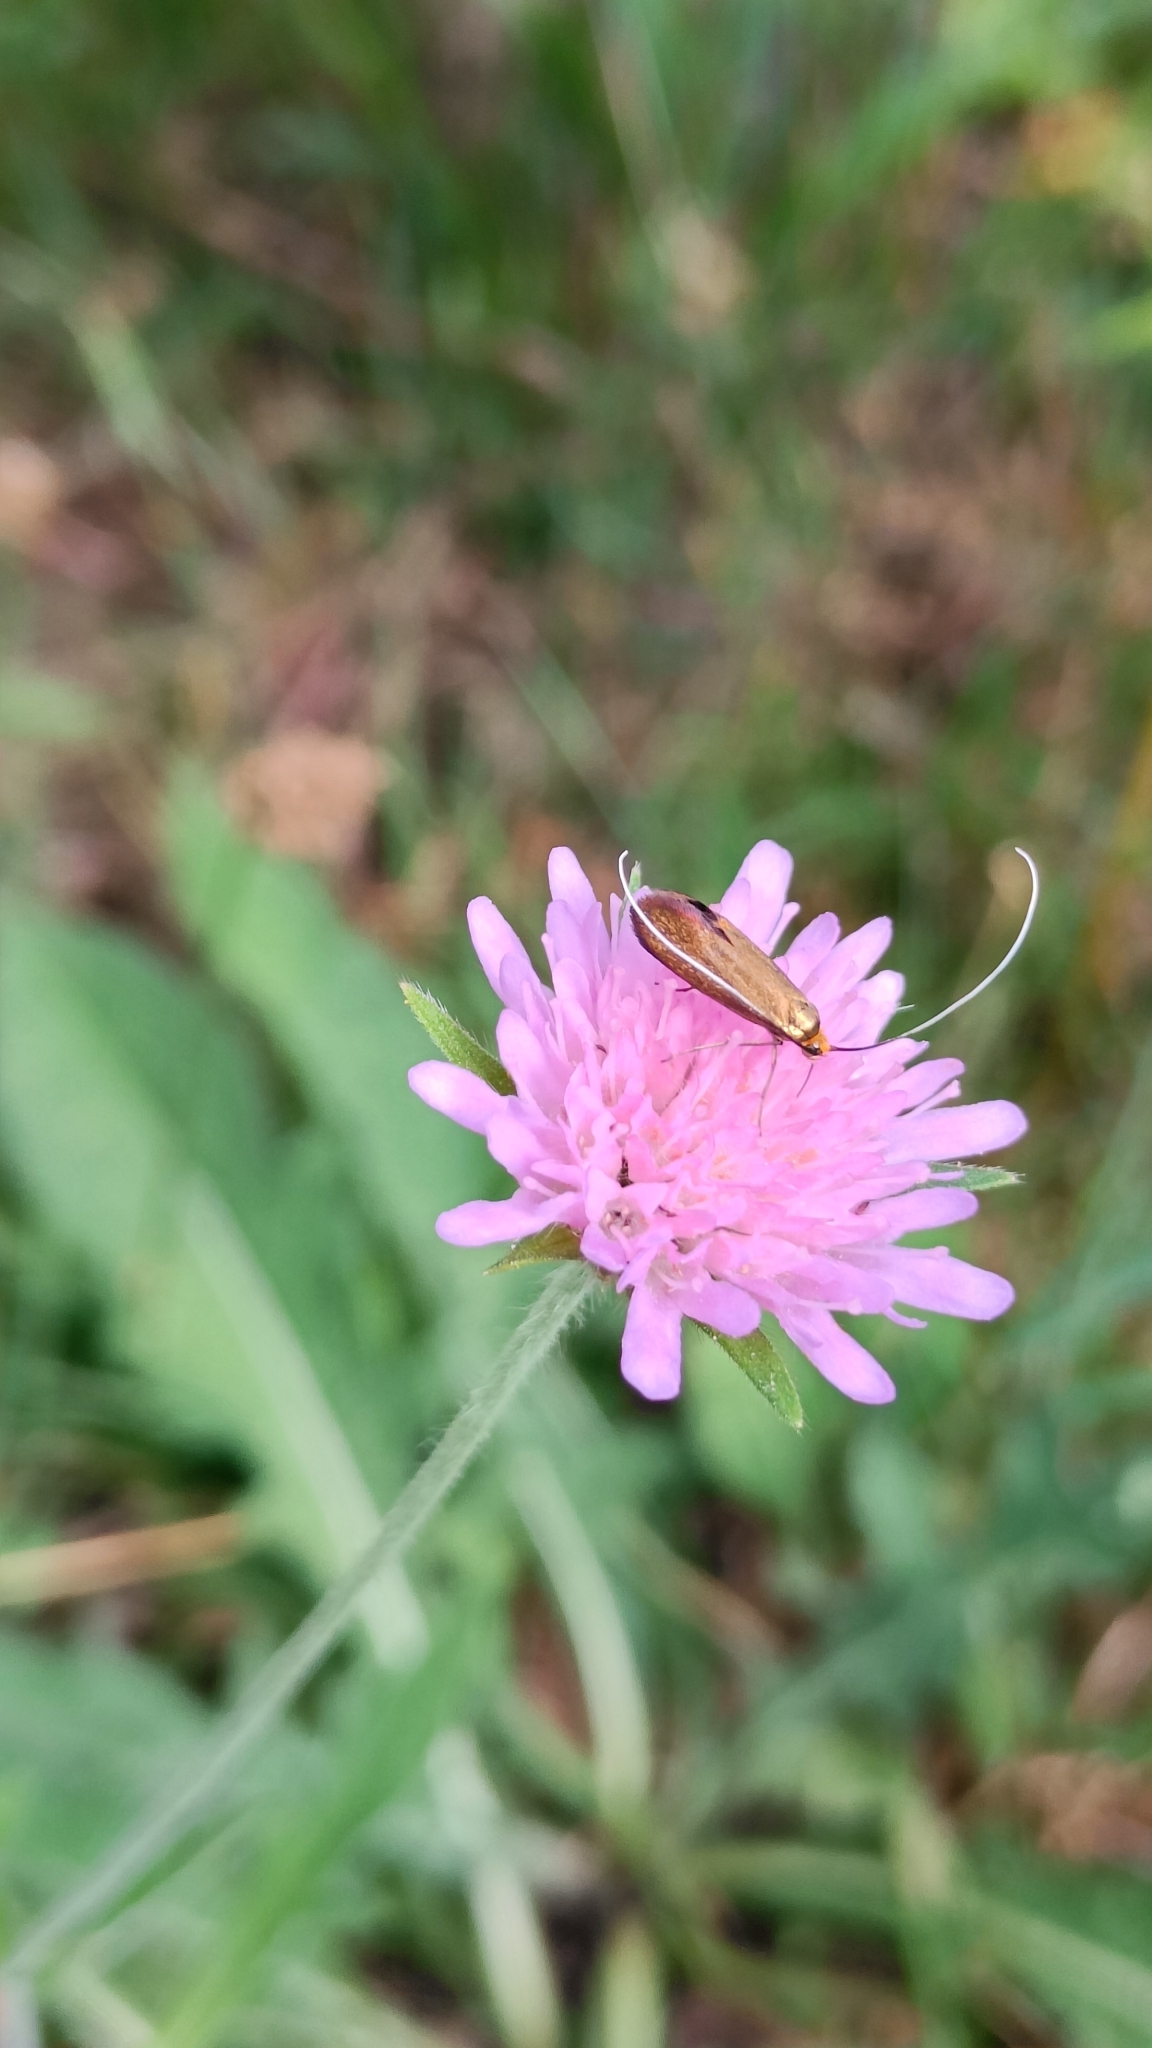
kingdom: Animalia
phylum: Arthropoda
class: Insecta
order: Lepidoptera
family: Adelidae
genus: Nemophora
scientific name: Nemophora metallica
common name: Brassy long-horn
